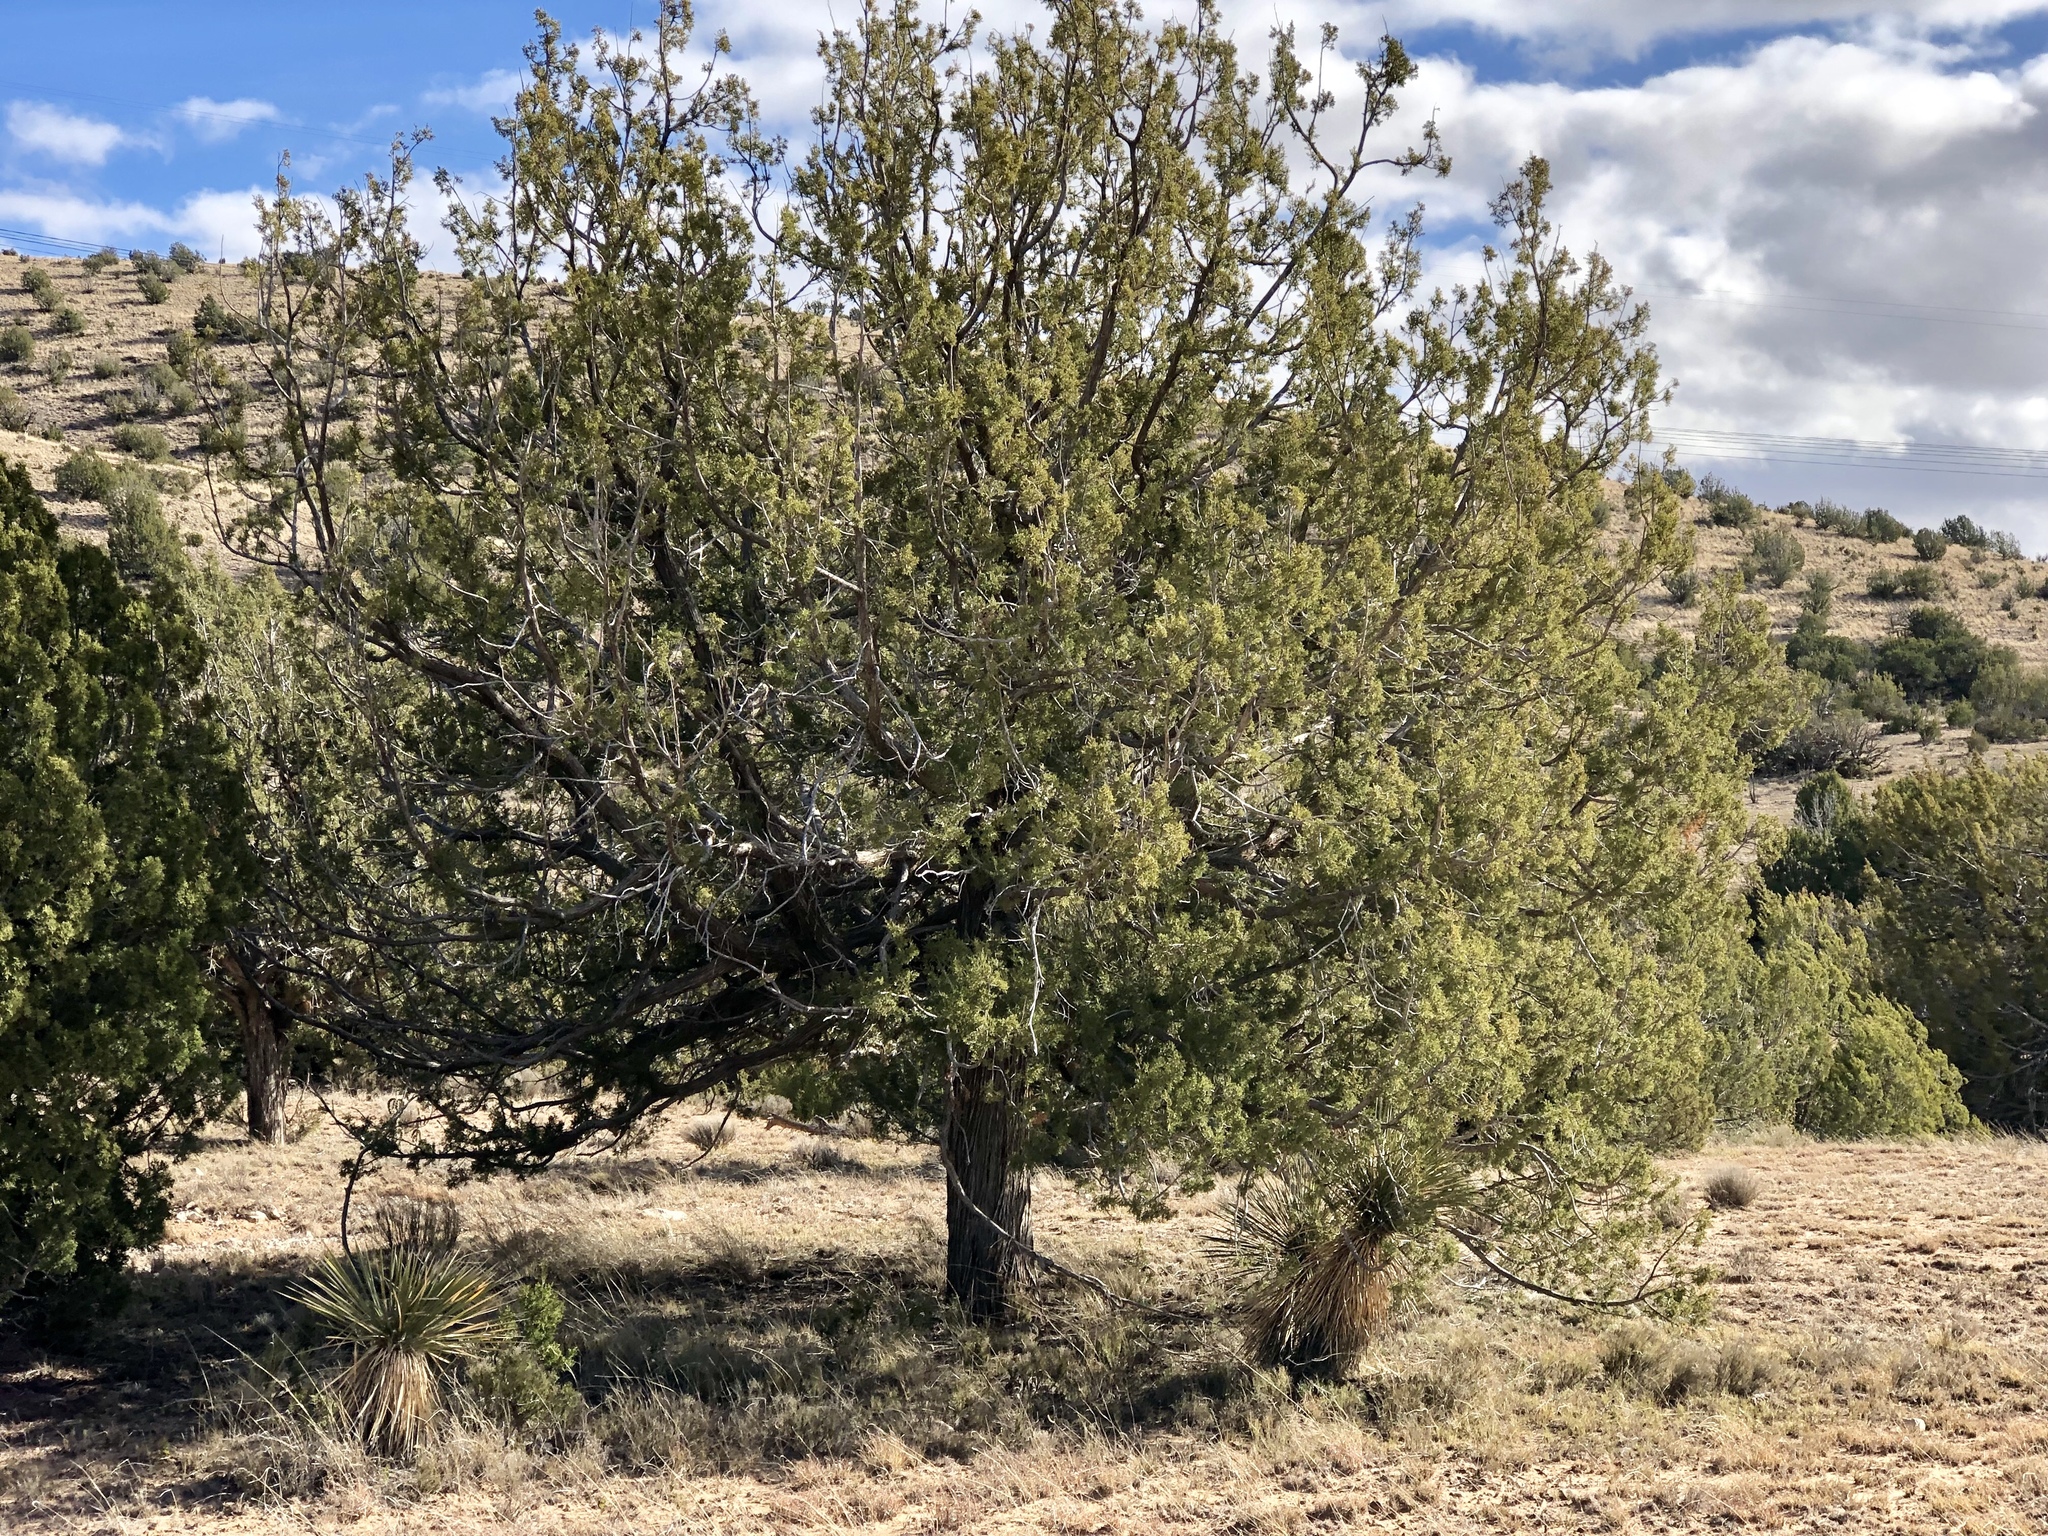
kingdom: Plantae
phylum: Tracheophyta
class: Pinopsida
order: Pinales
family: Cupressaceae
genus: Juniperus
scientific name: Juniperus monosperma
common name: One-seed juniper
